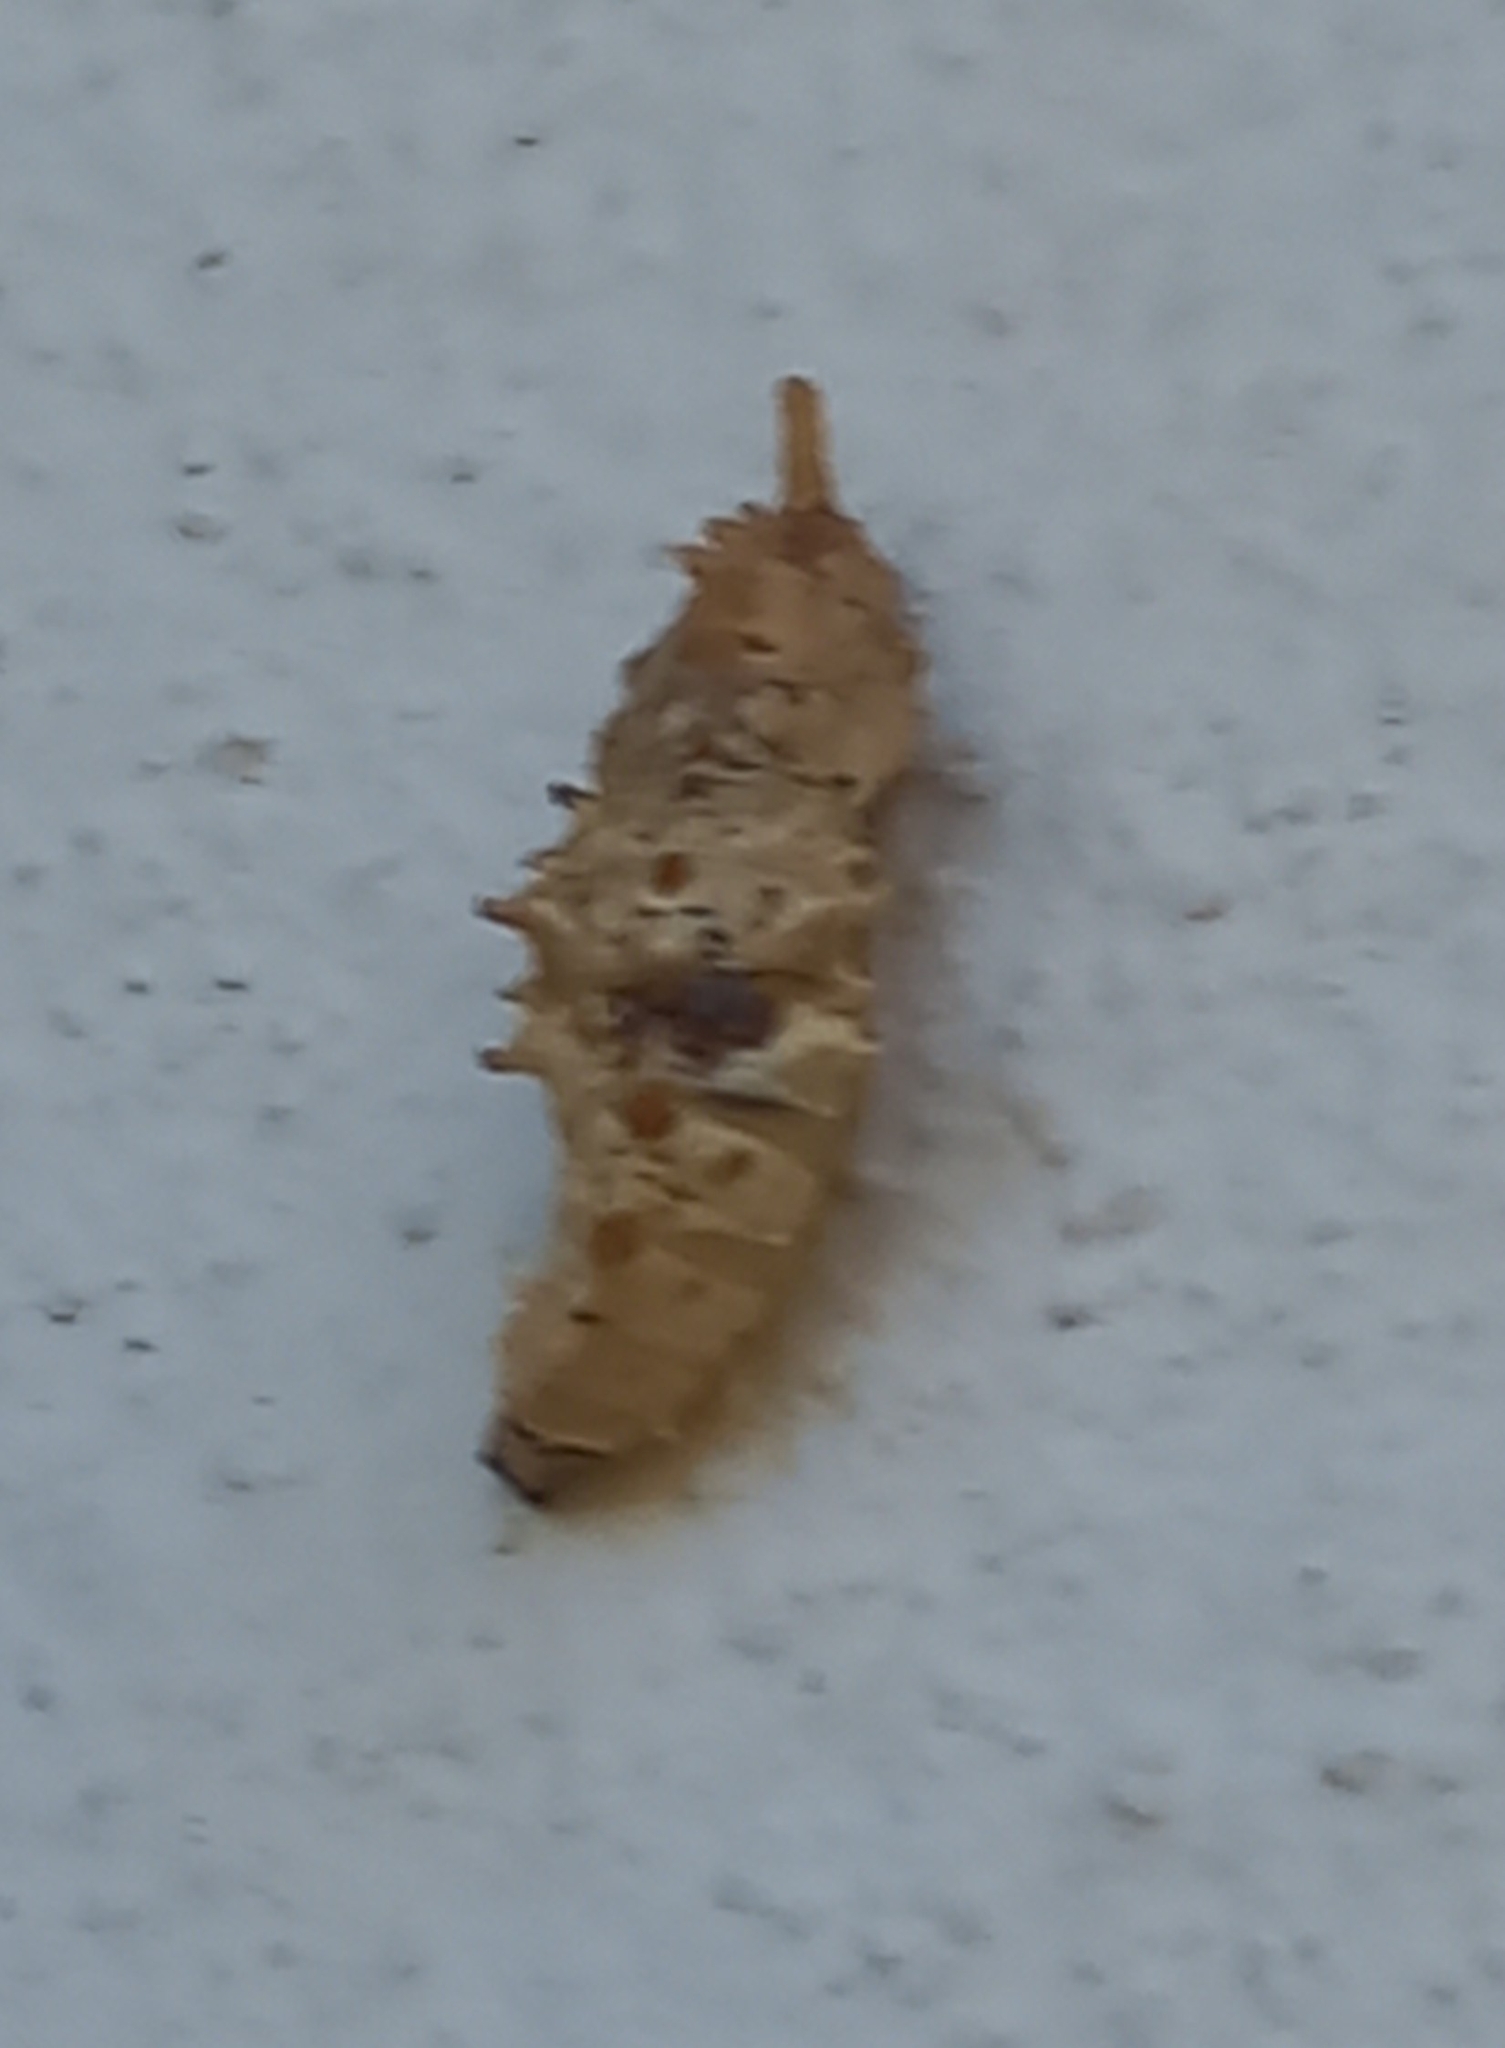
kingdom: Animalia
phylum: Arthropoda
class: Insecta
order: Lepidoptera
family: Pieridae
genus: Mylothris
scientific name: Mylothris agathina
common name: Eastern dotted border
